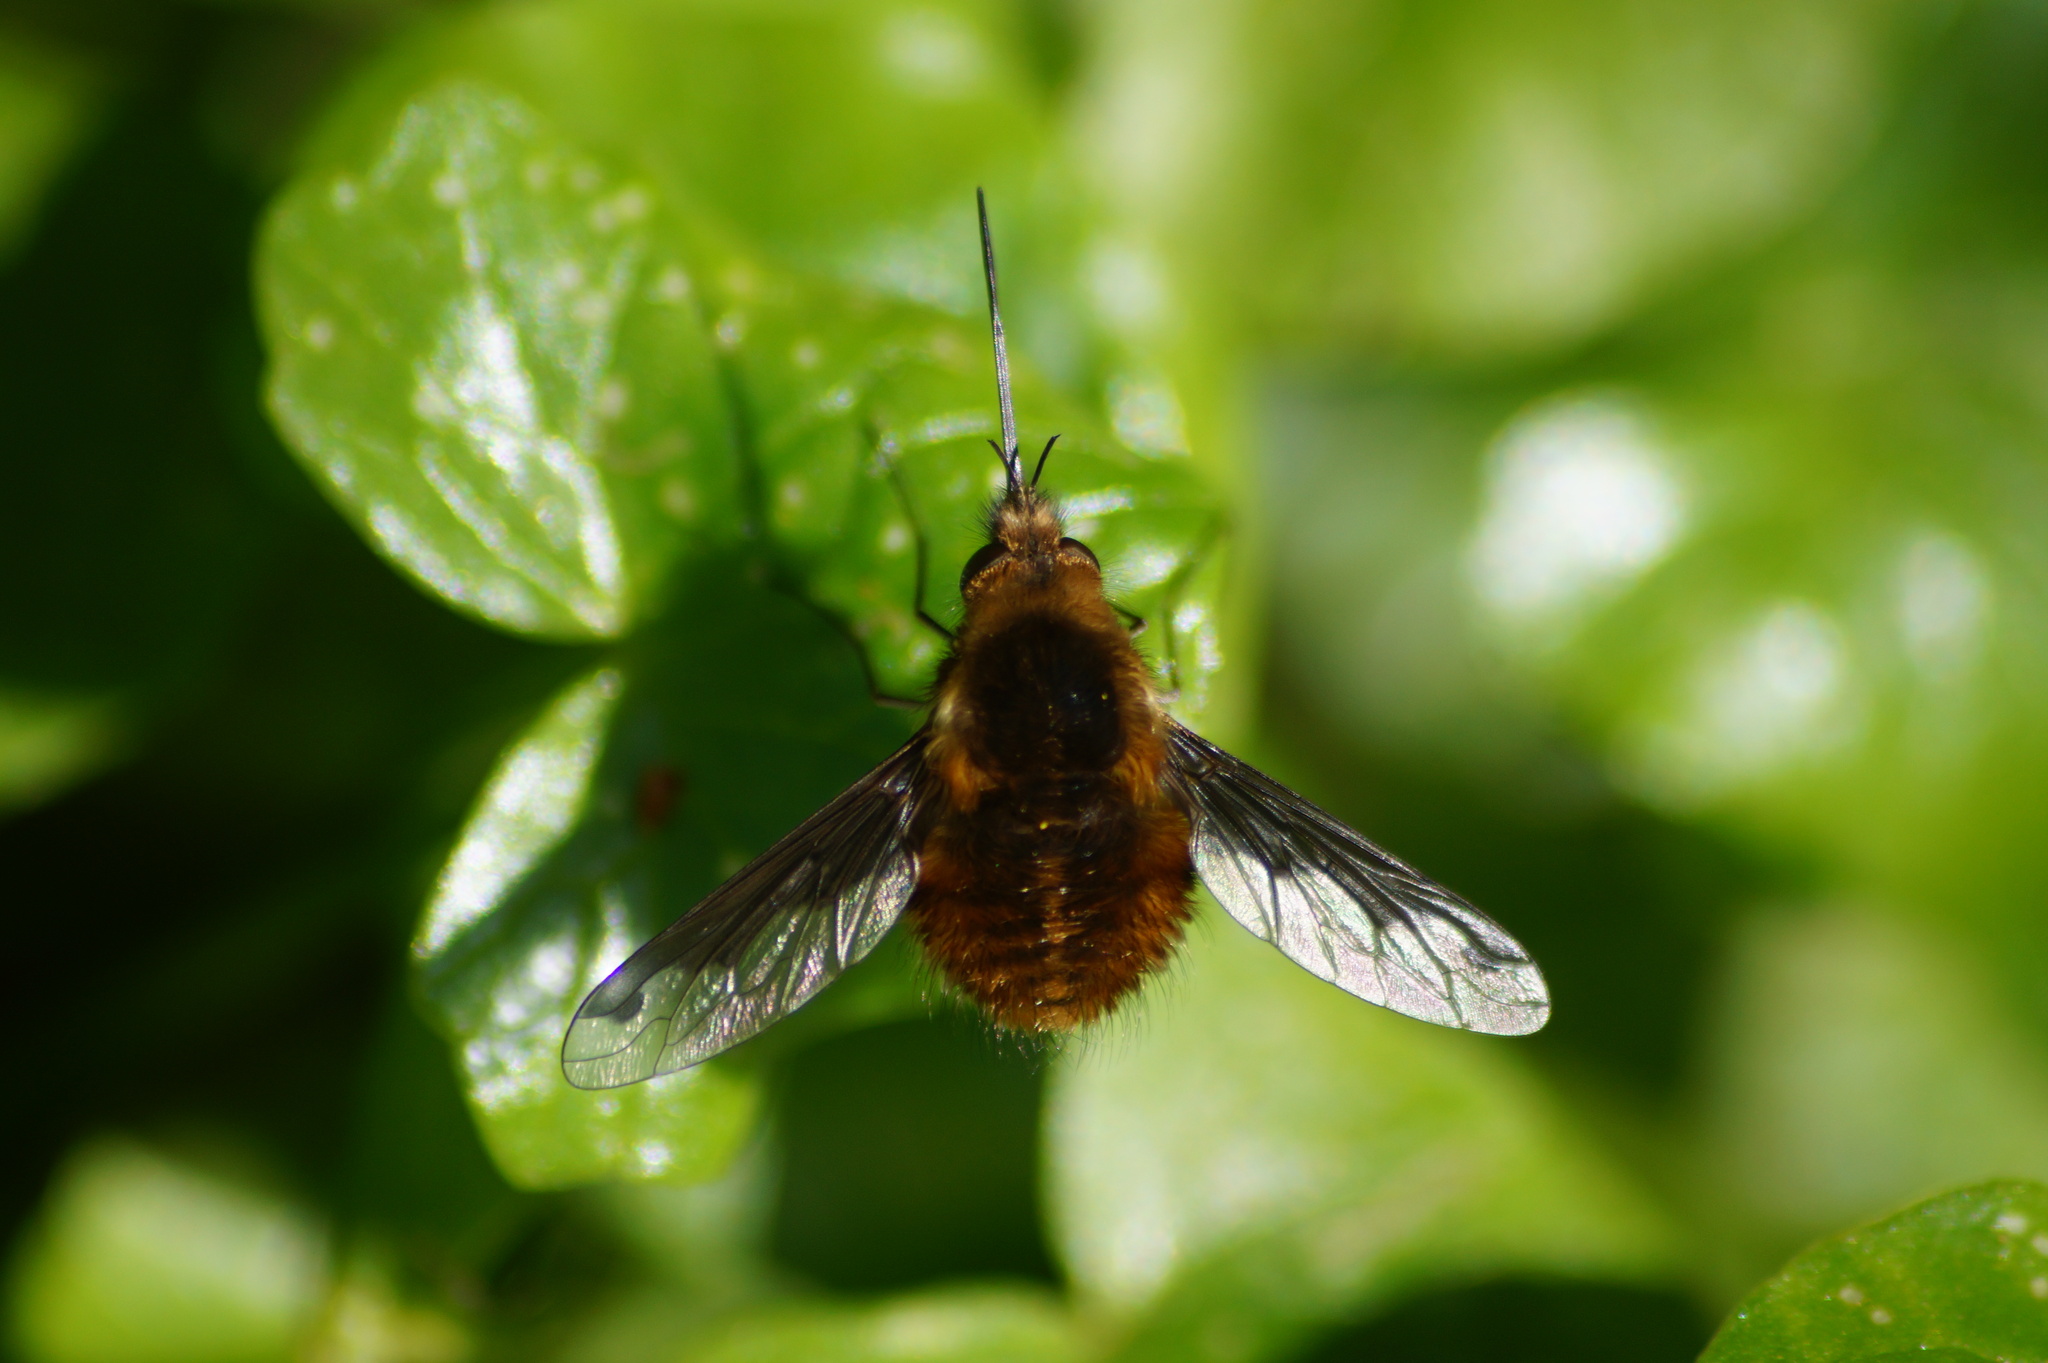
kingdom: Animalia
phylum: Arthropoda
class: Insecta
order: Diptera
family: Bombyliidae
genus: Bombylius
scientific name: Bombylius major
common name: Bee fly
